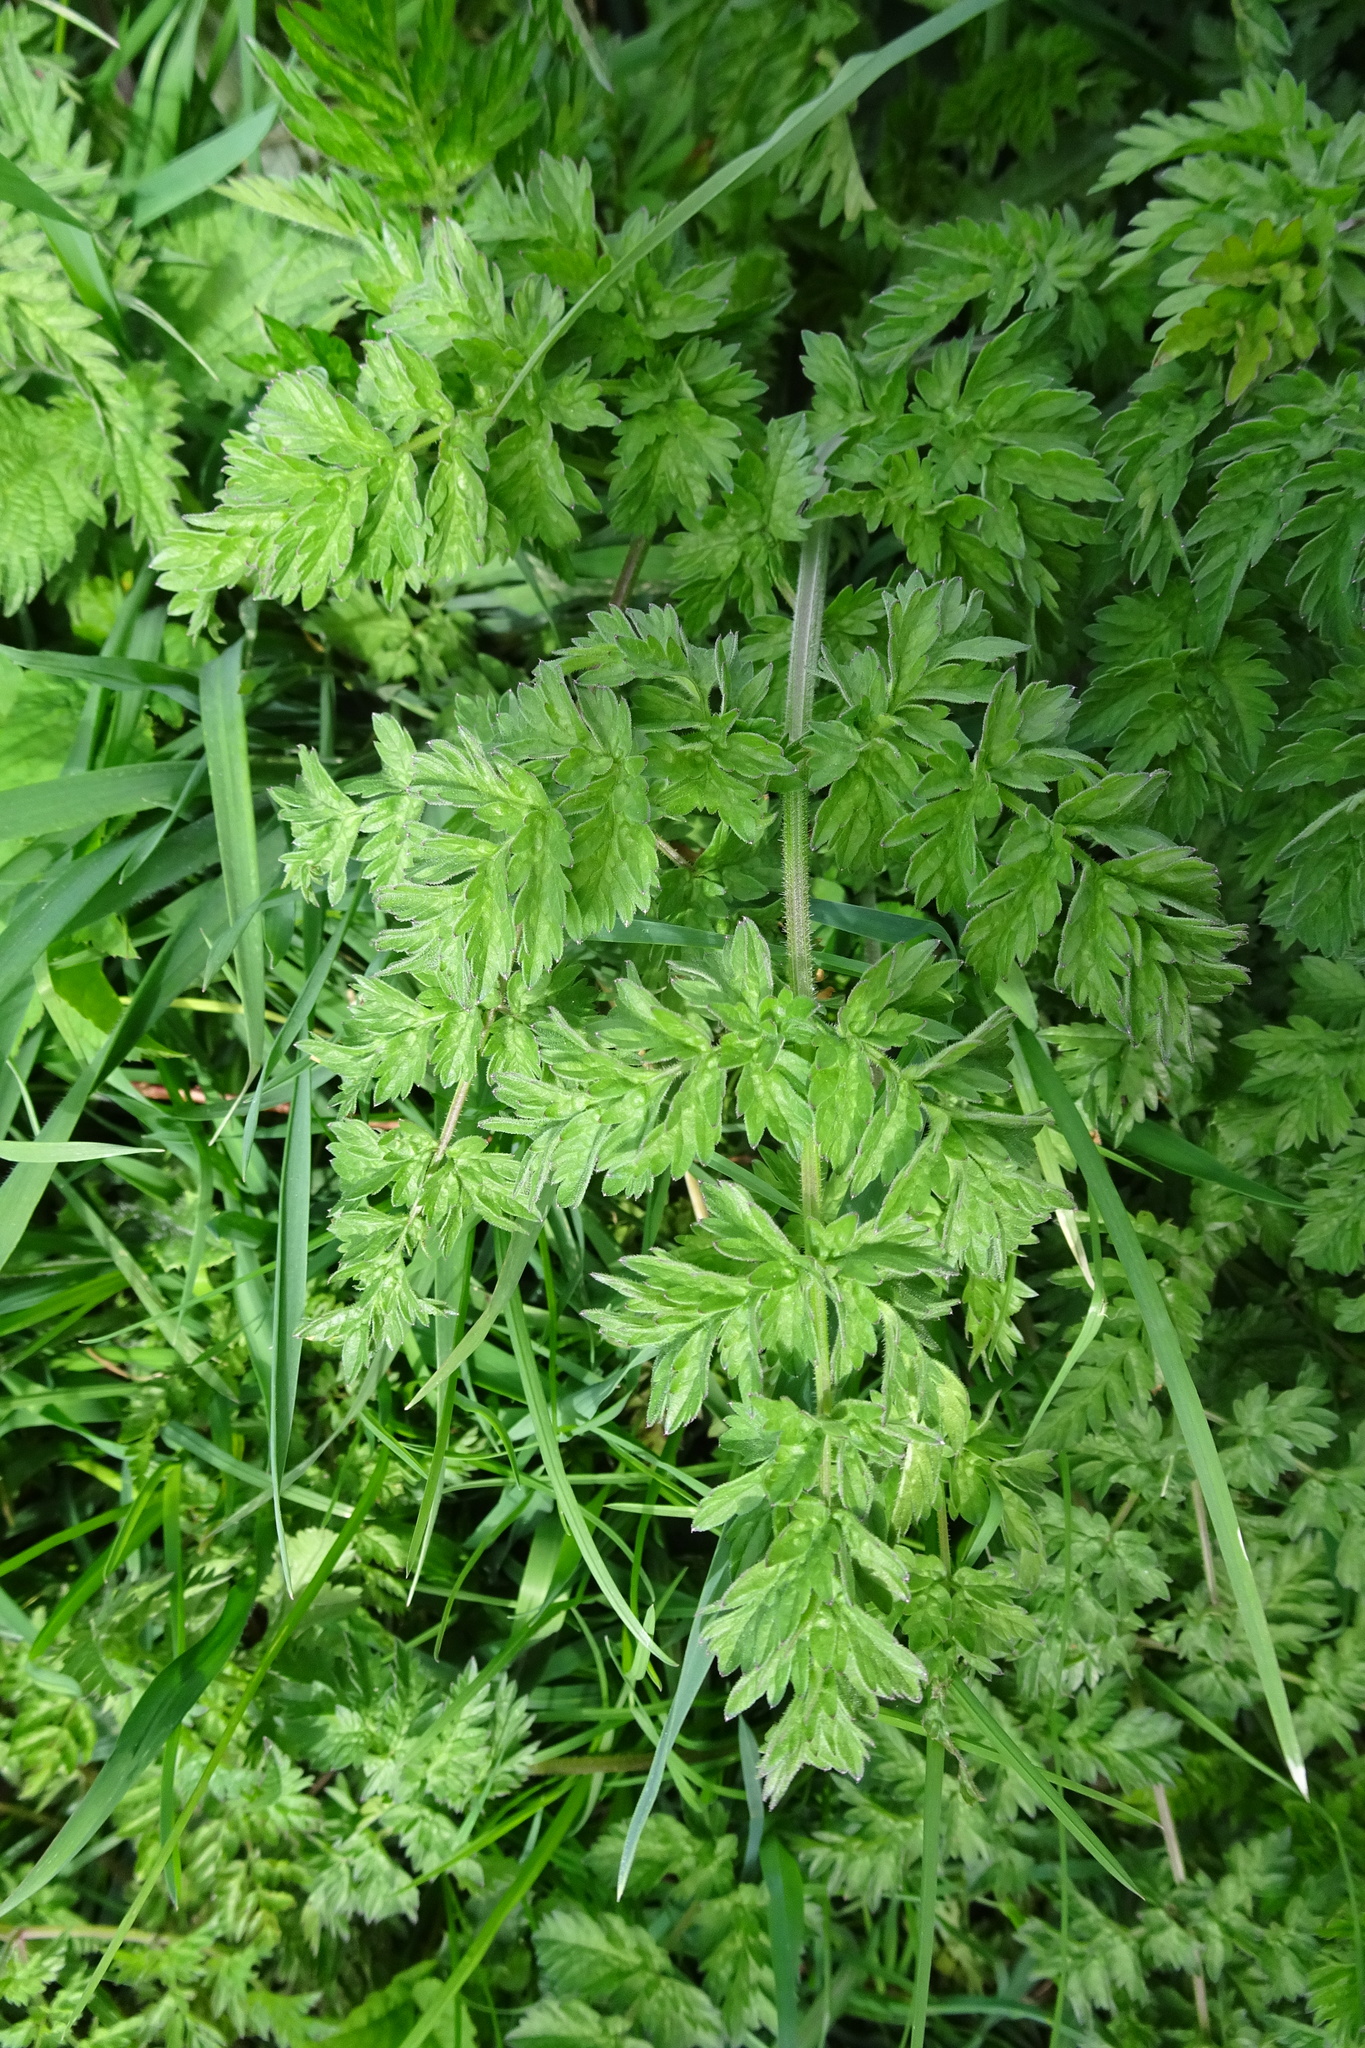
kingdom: Plantae
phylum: Tracheophyta
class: Magnoliopsida
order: Apiales
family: Apiaceae
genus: Anthriscus
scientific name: Anthriscus sylvestris
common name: Cow parsley
